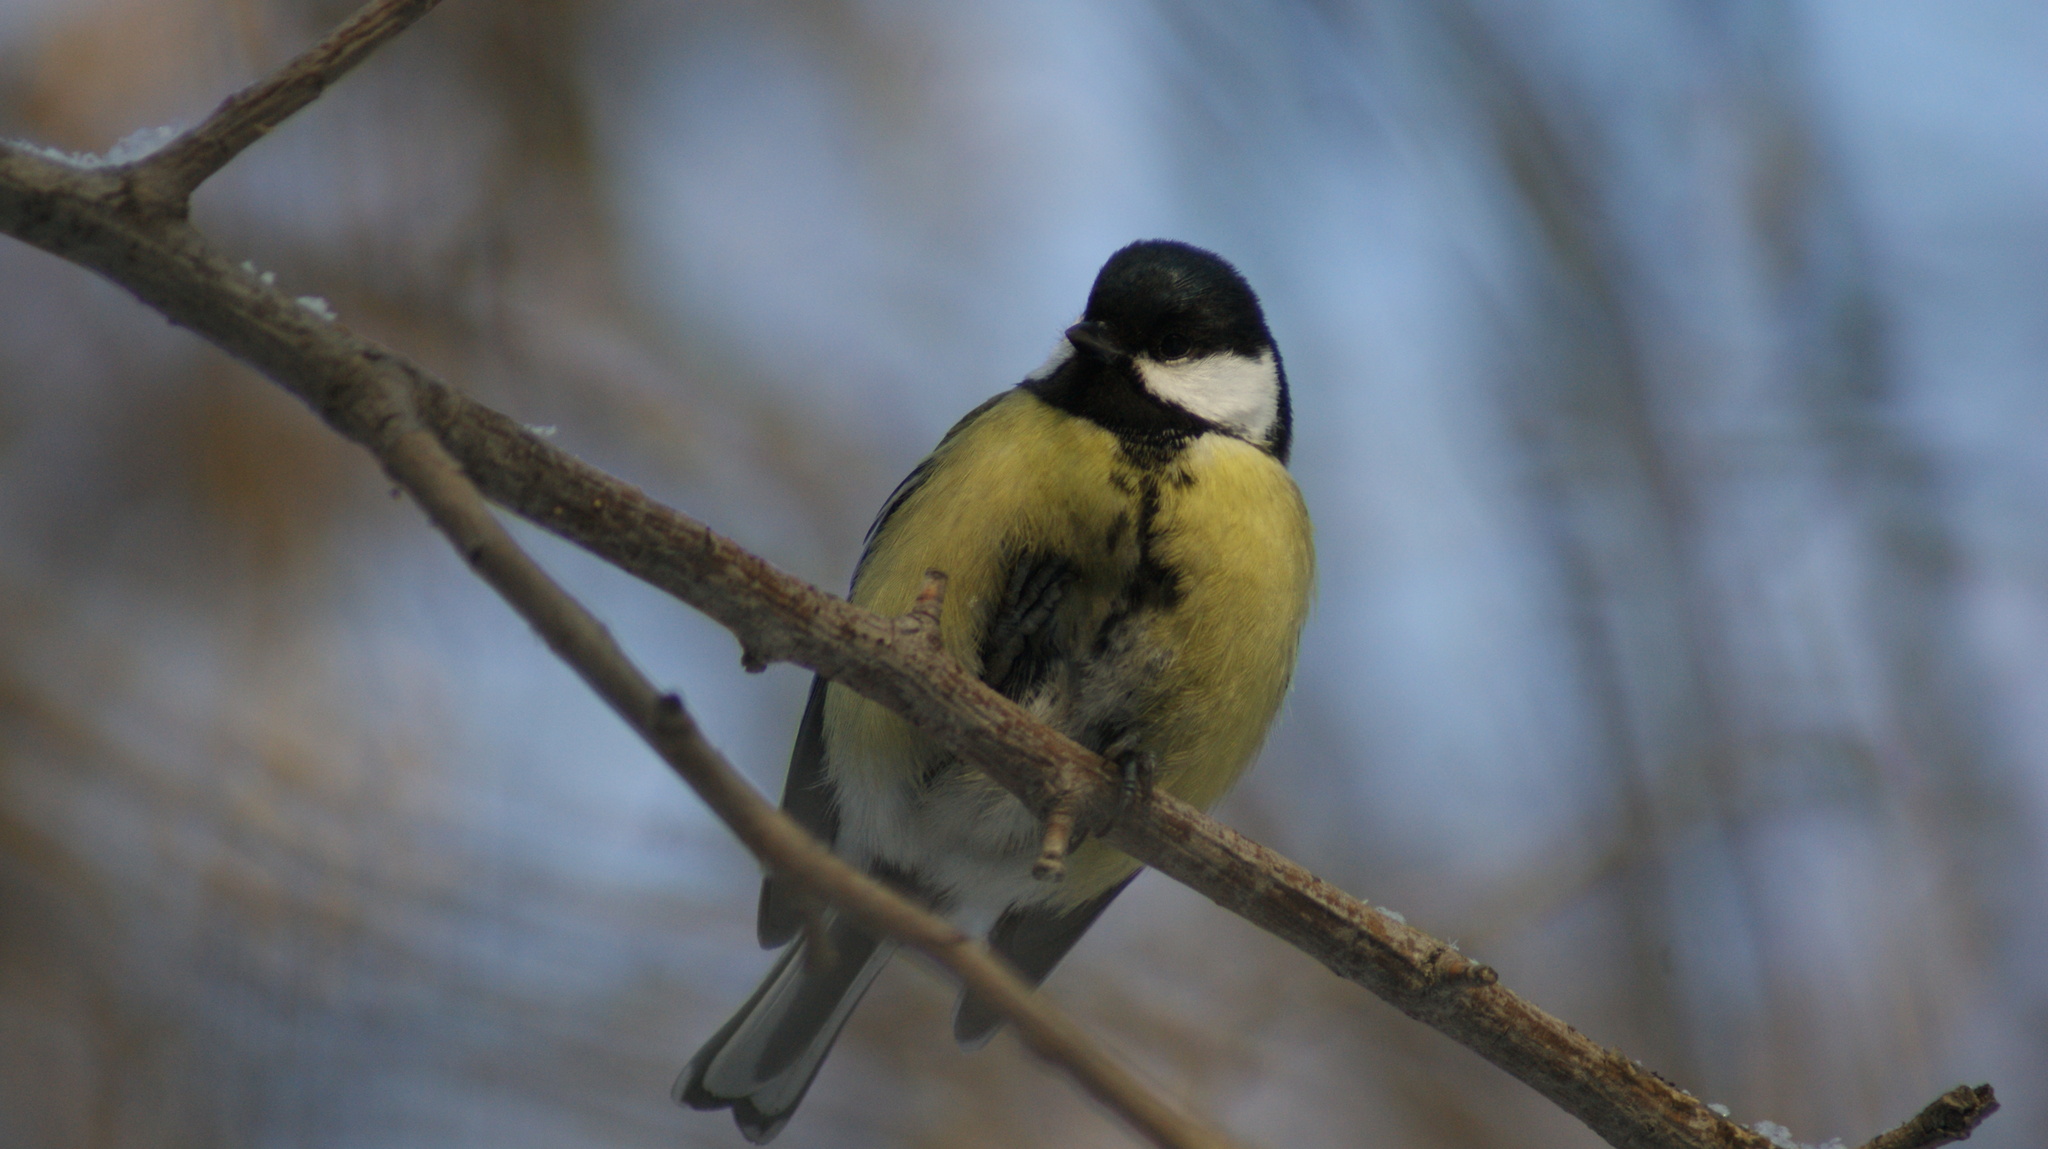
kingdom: Animalia
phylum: Chordata
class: Aves
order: Passeriformes
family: Paridae
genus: Parus
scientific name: Parus major
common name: Great tit
